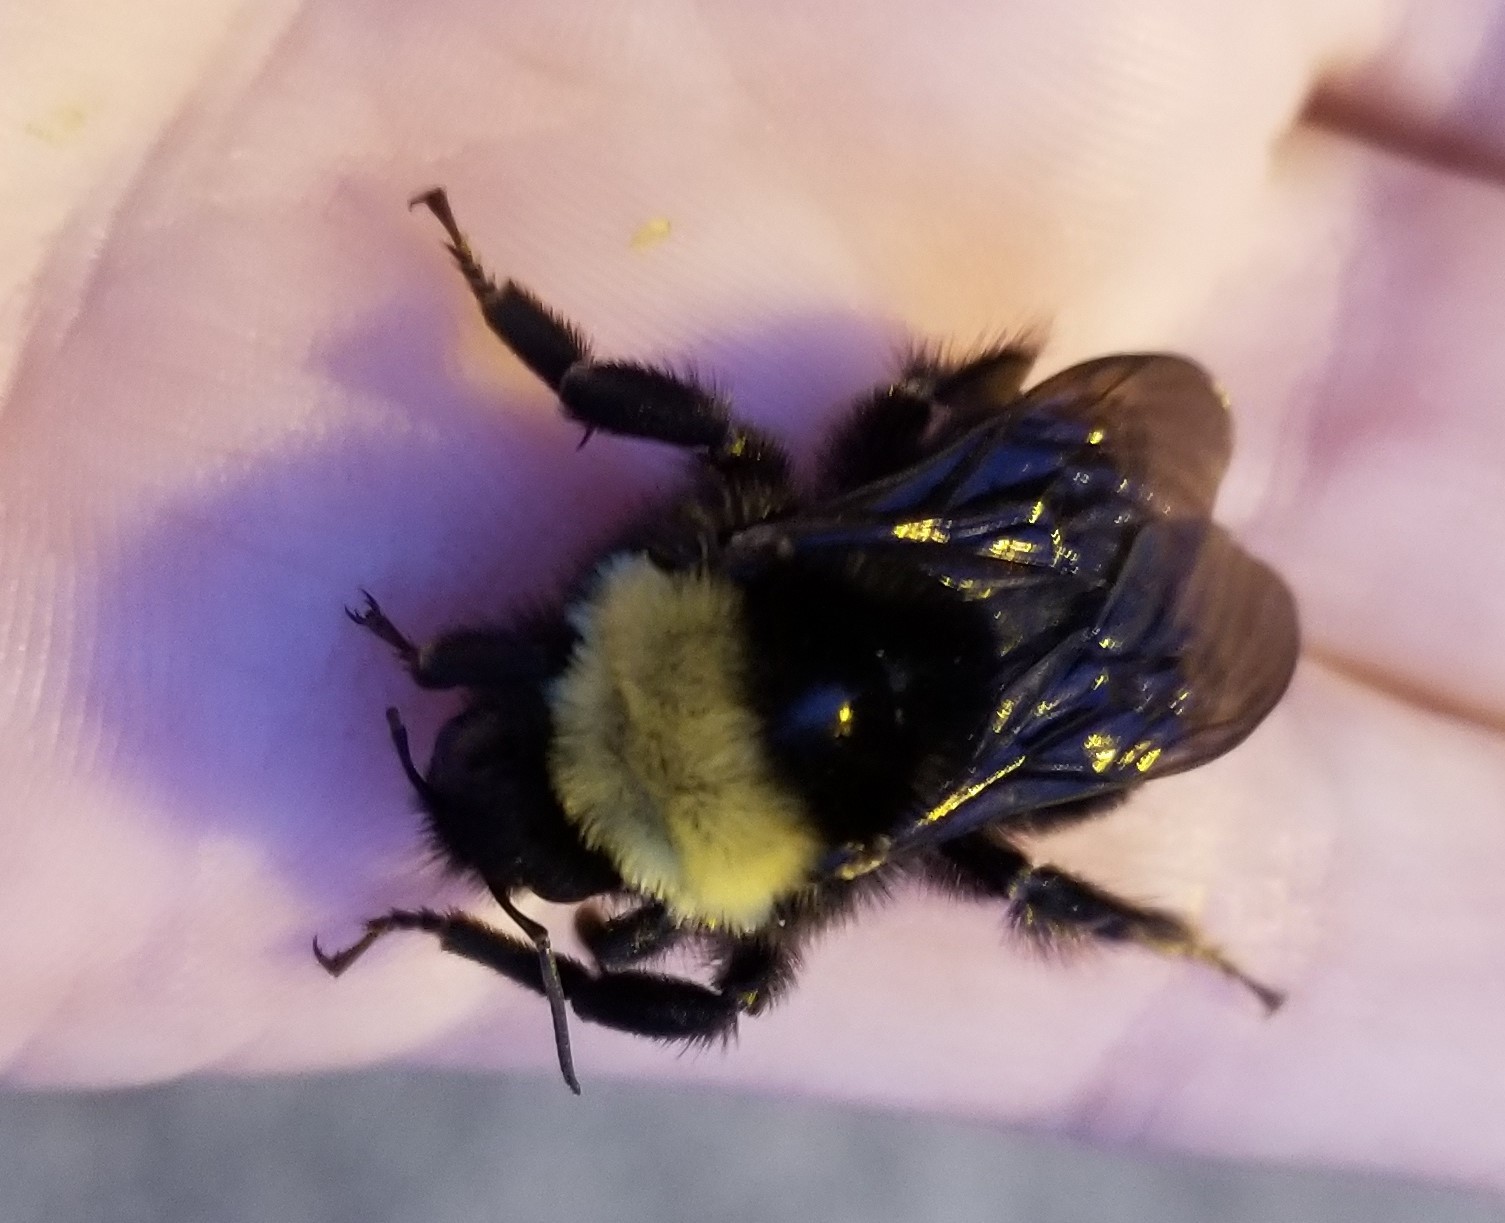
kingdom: Animalia
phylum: Arthropoda
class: Insecta
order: Hymenoptera
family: Apidae
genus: Bombus
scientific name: Bombus californicus
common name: California bumble bee
